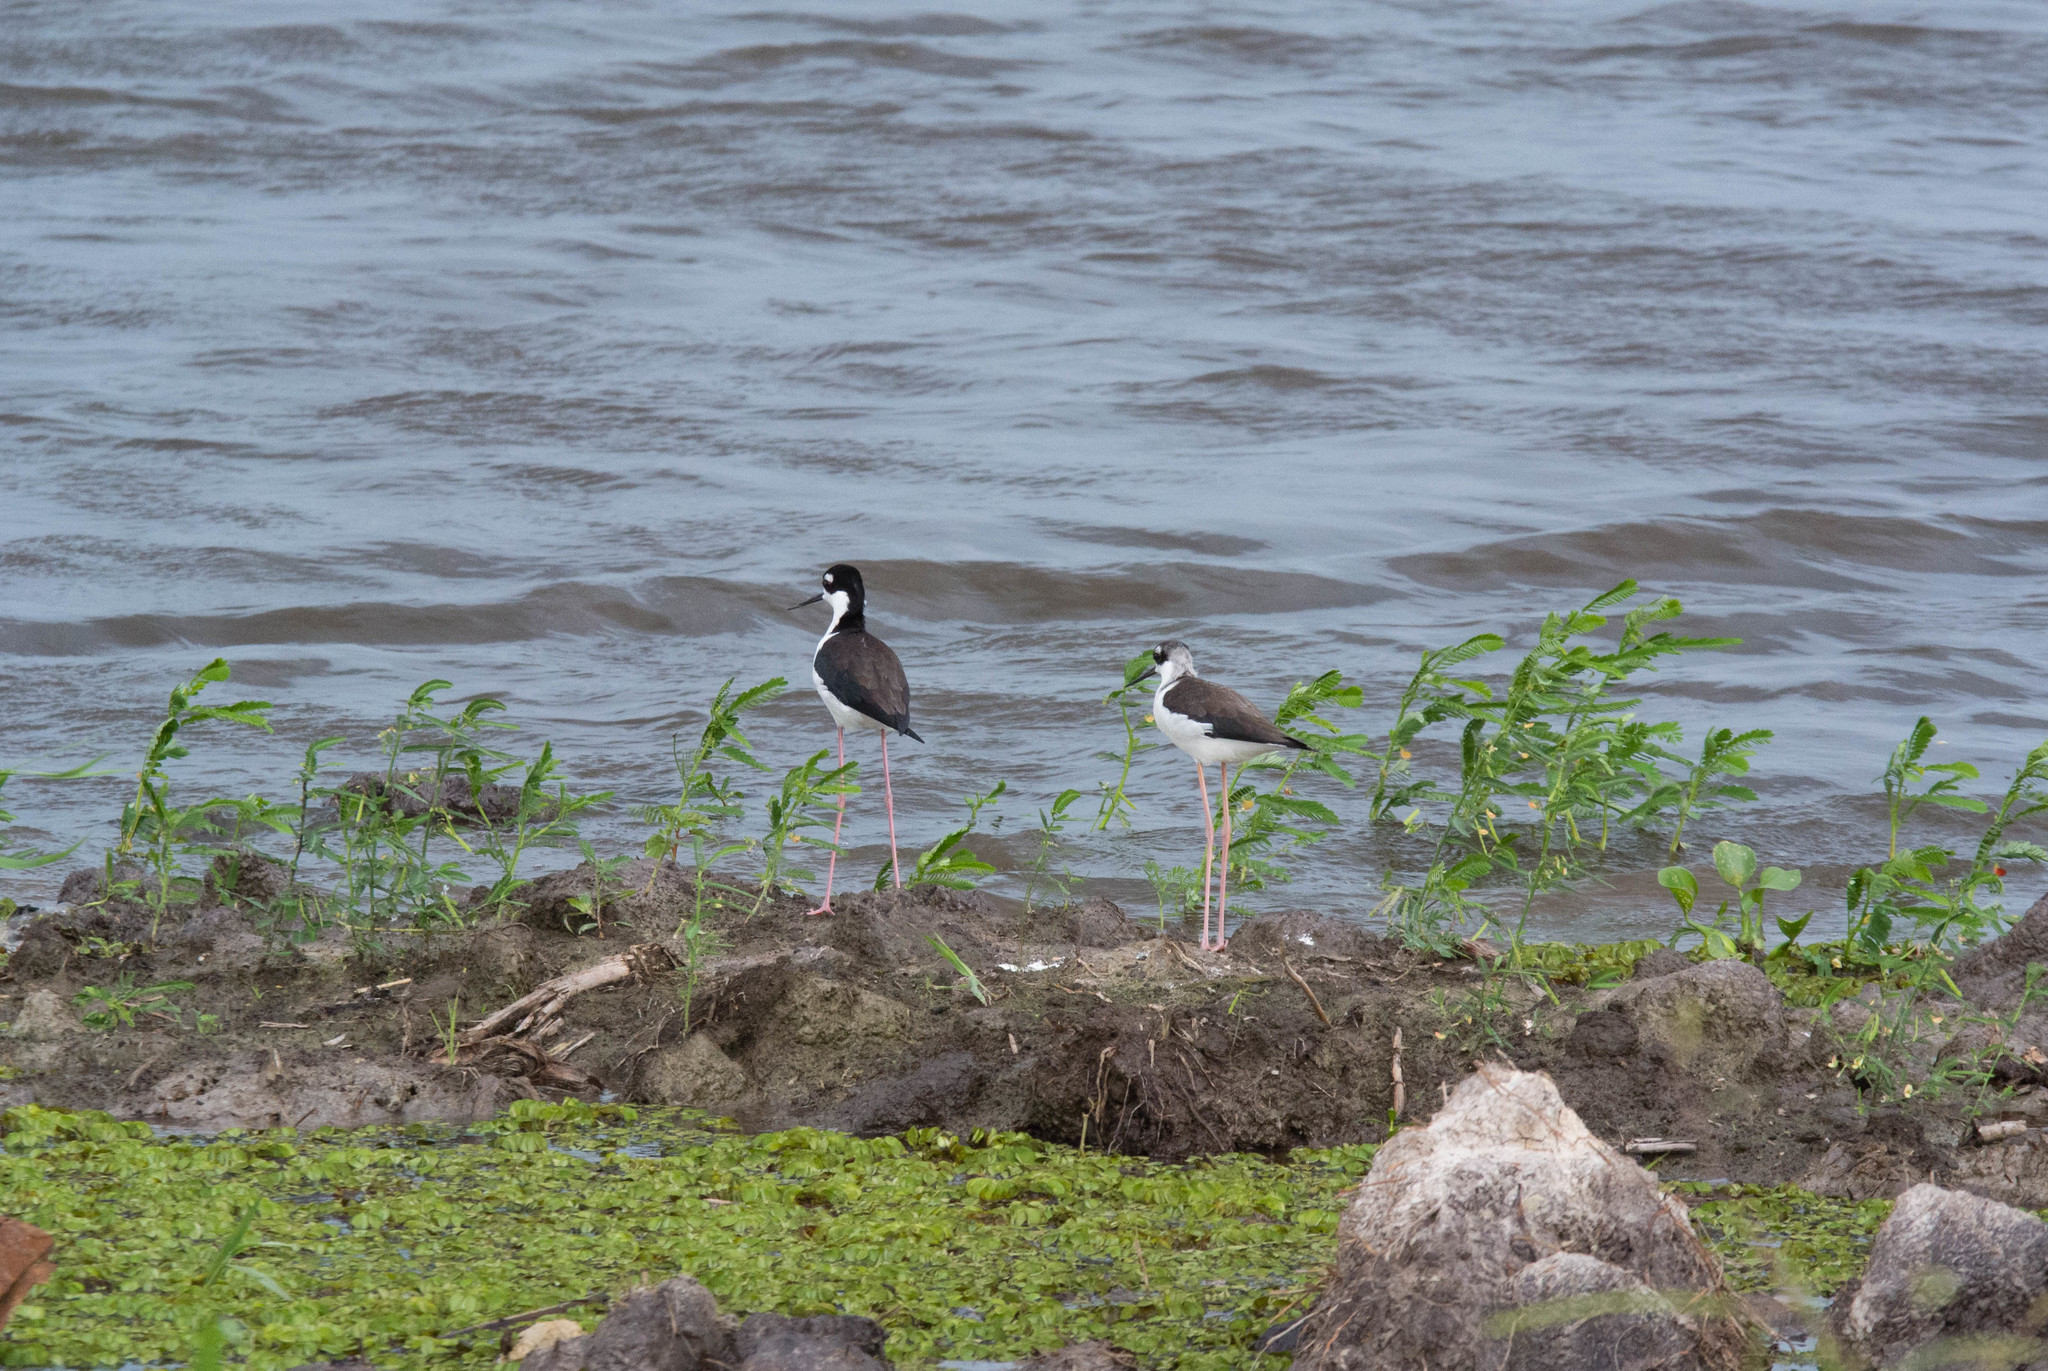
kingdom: Animalia
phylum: Chordata
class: Aves
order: Charadriiformes
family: Recurvirostridae
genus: Himantopus
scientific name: Himantopus mexicanus
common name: Black-necked stilt
